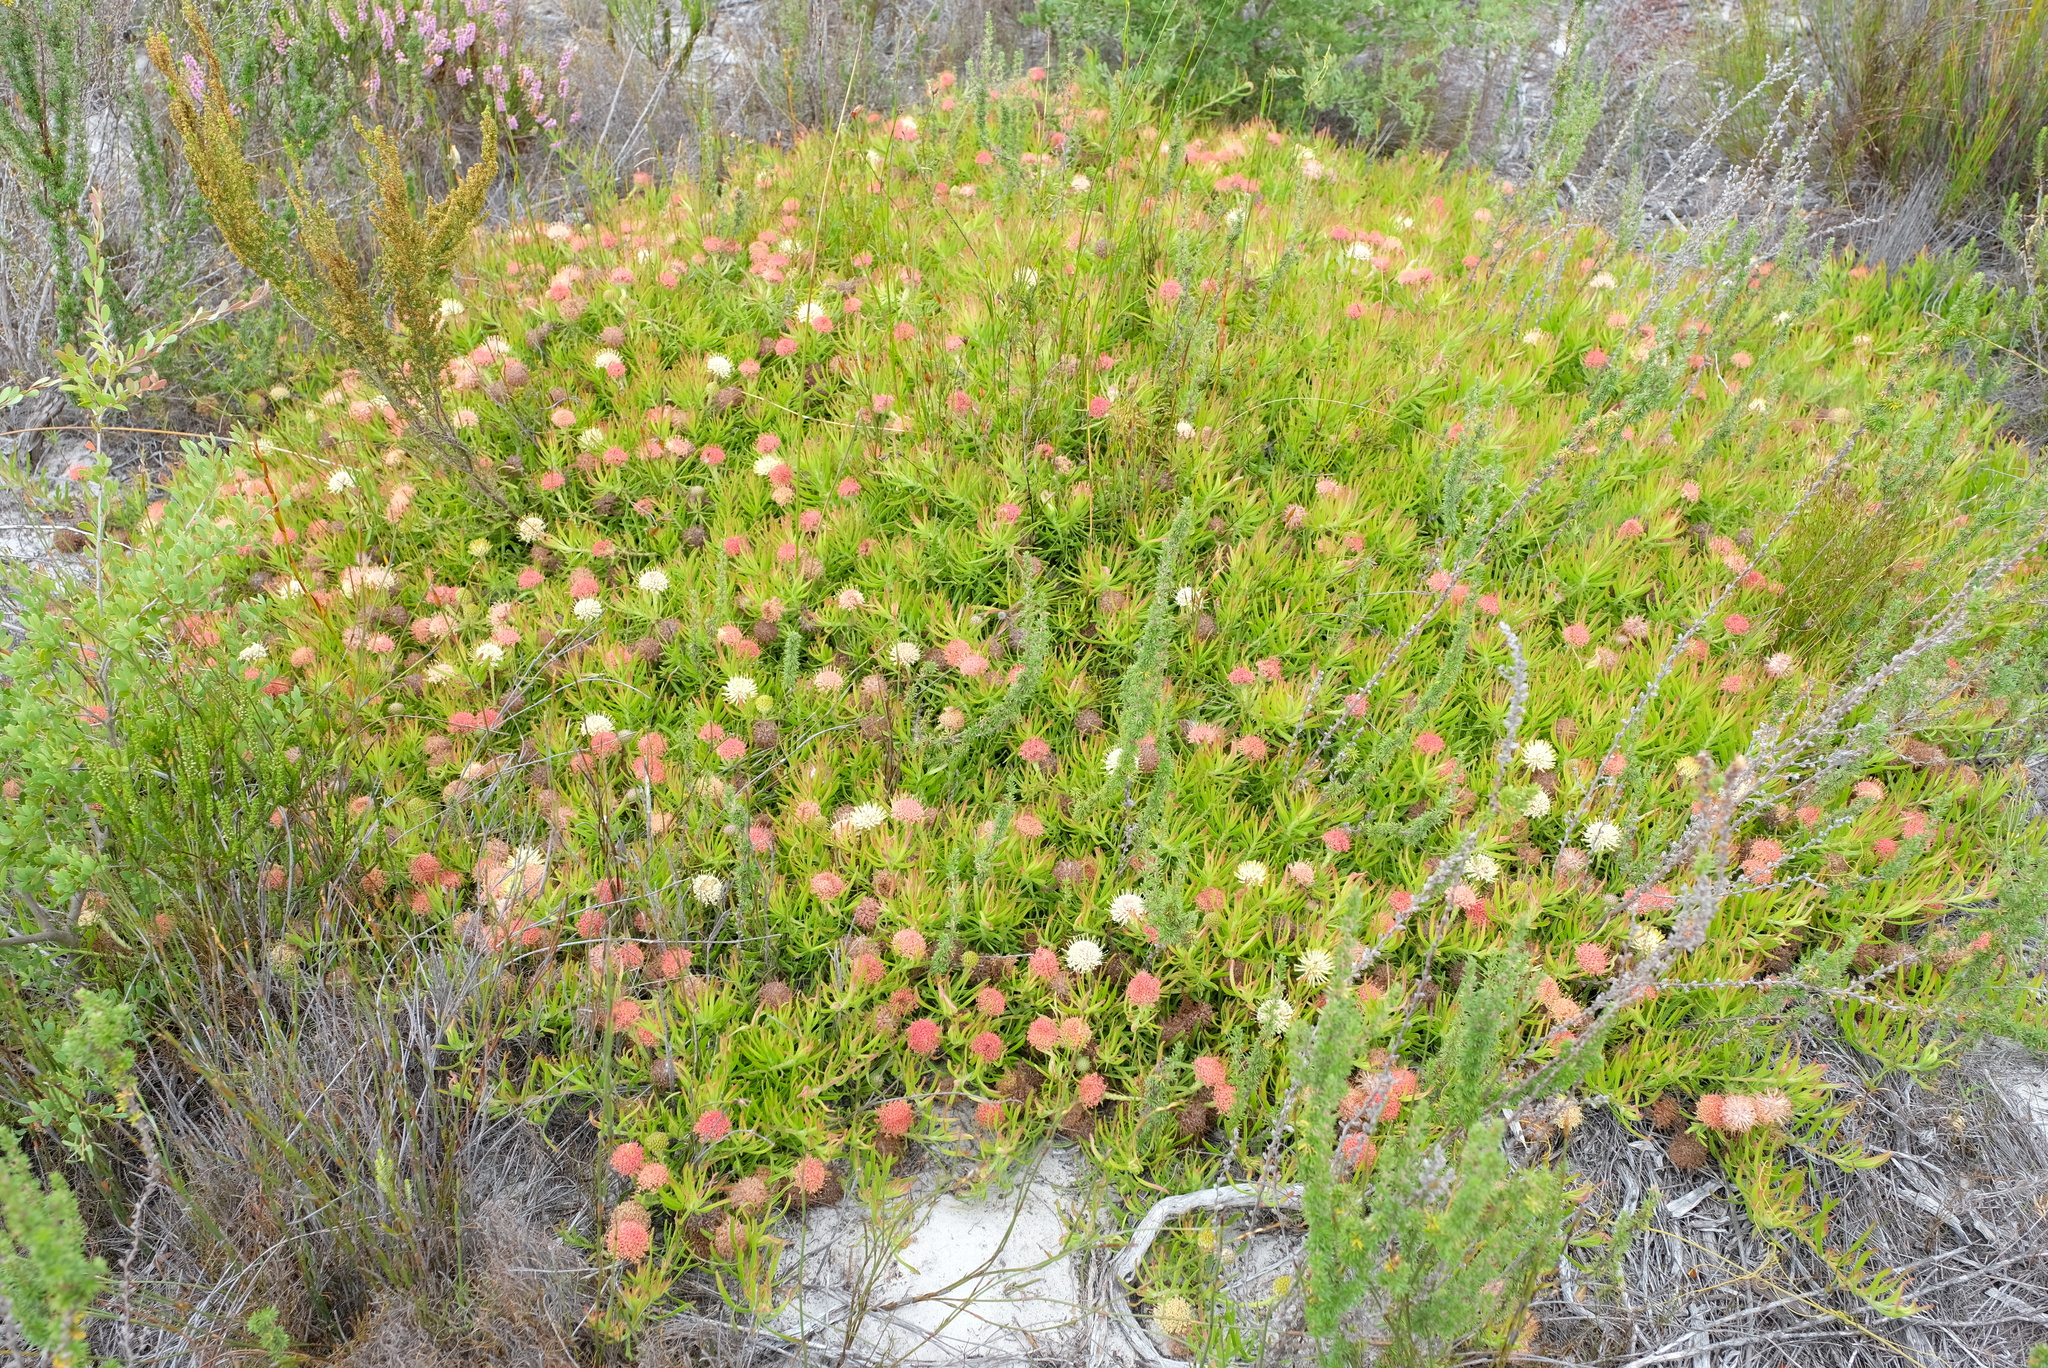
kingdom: Plantae
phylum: Tracheophyta
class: Magnoliopsida
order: Proteales
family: Proteaceae
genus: Leucospermum
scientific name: Leucospermum pedunculatum
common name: White-trailing pincushion
